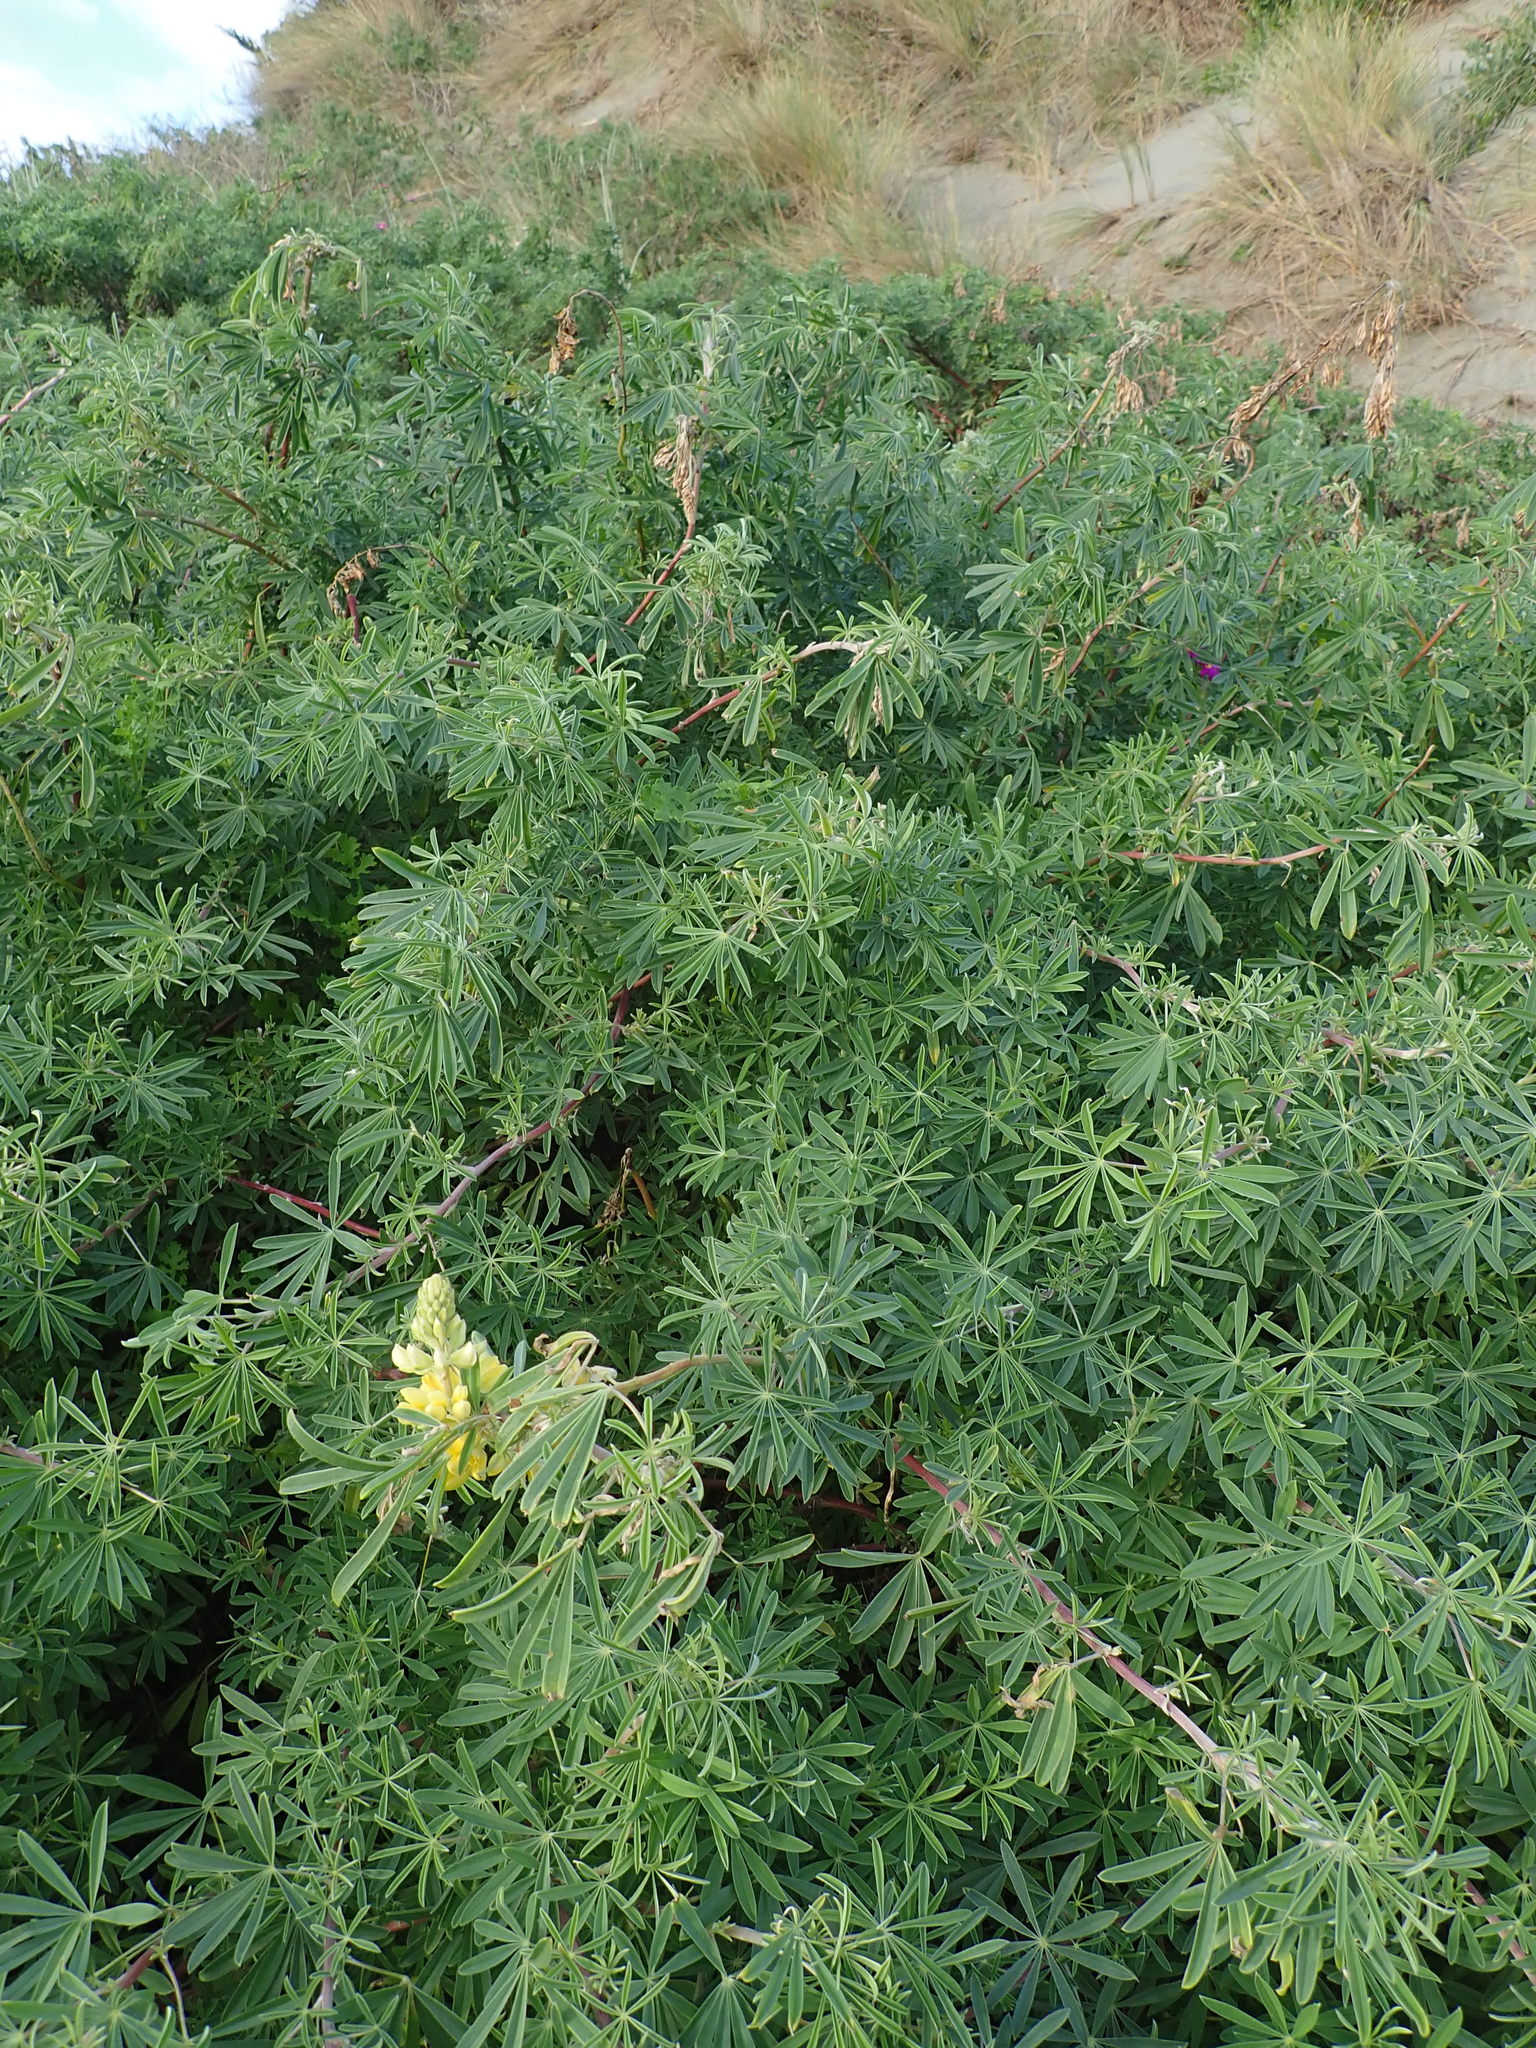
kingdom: Plantae
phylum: Tracheophyta
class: Magnoliopsida
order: Fabales
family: Fabaceae
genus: Lupinus
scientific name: Lupinus arboreus
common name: Yellow bush lupine
